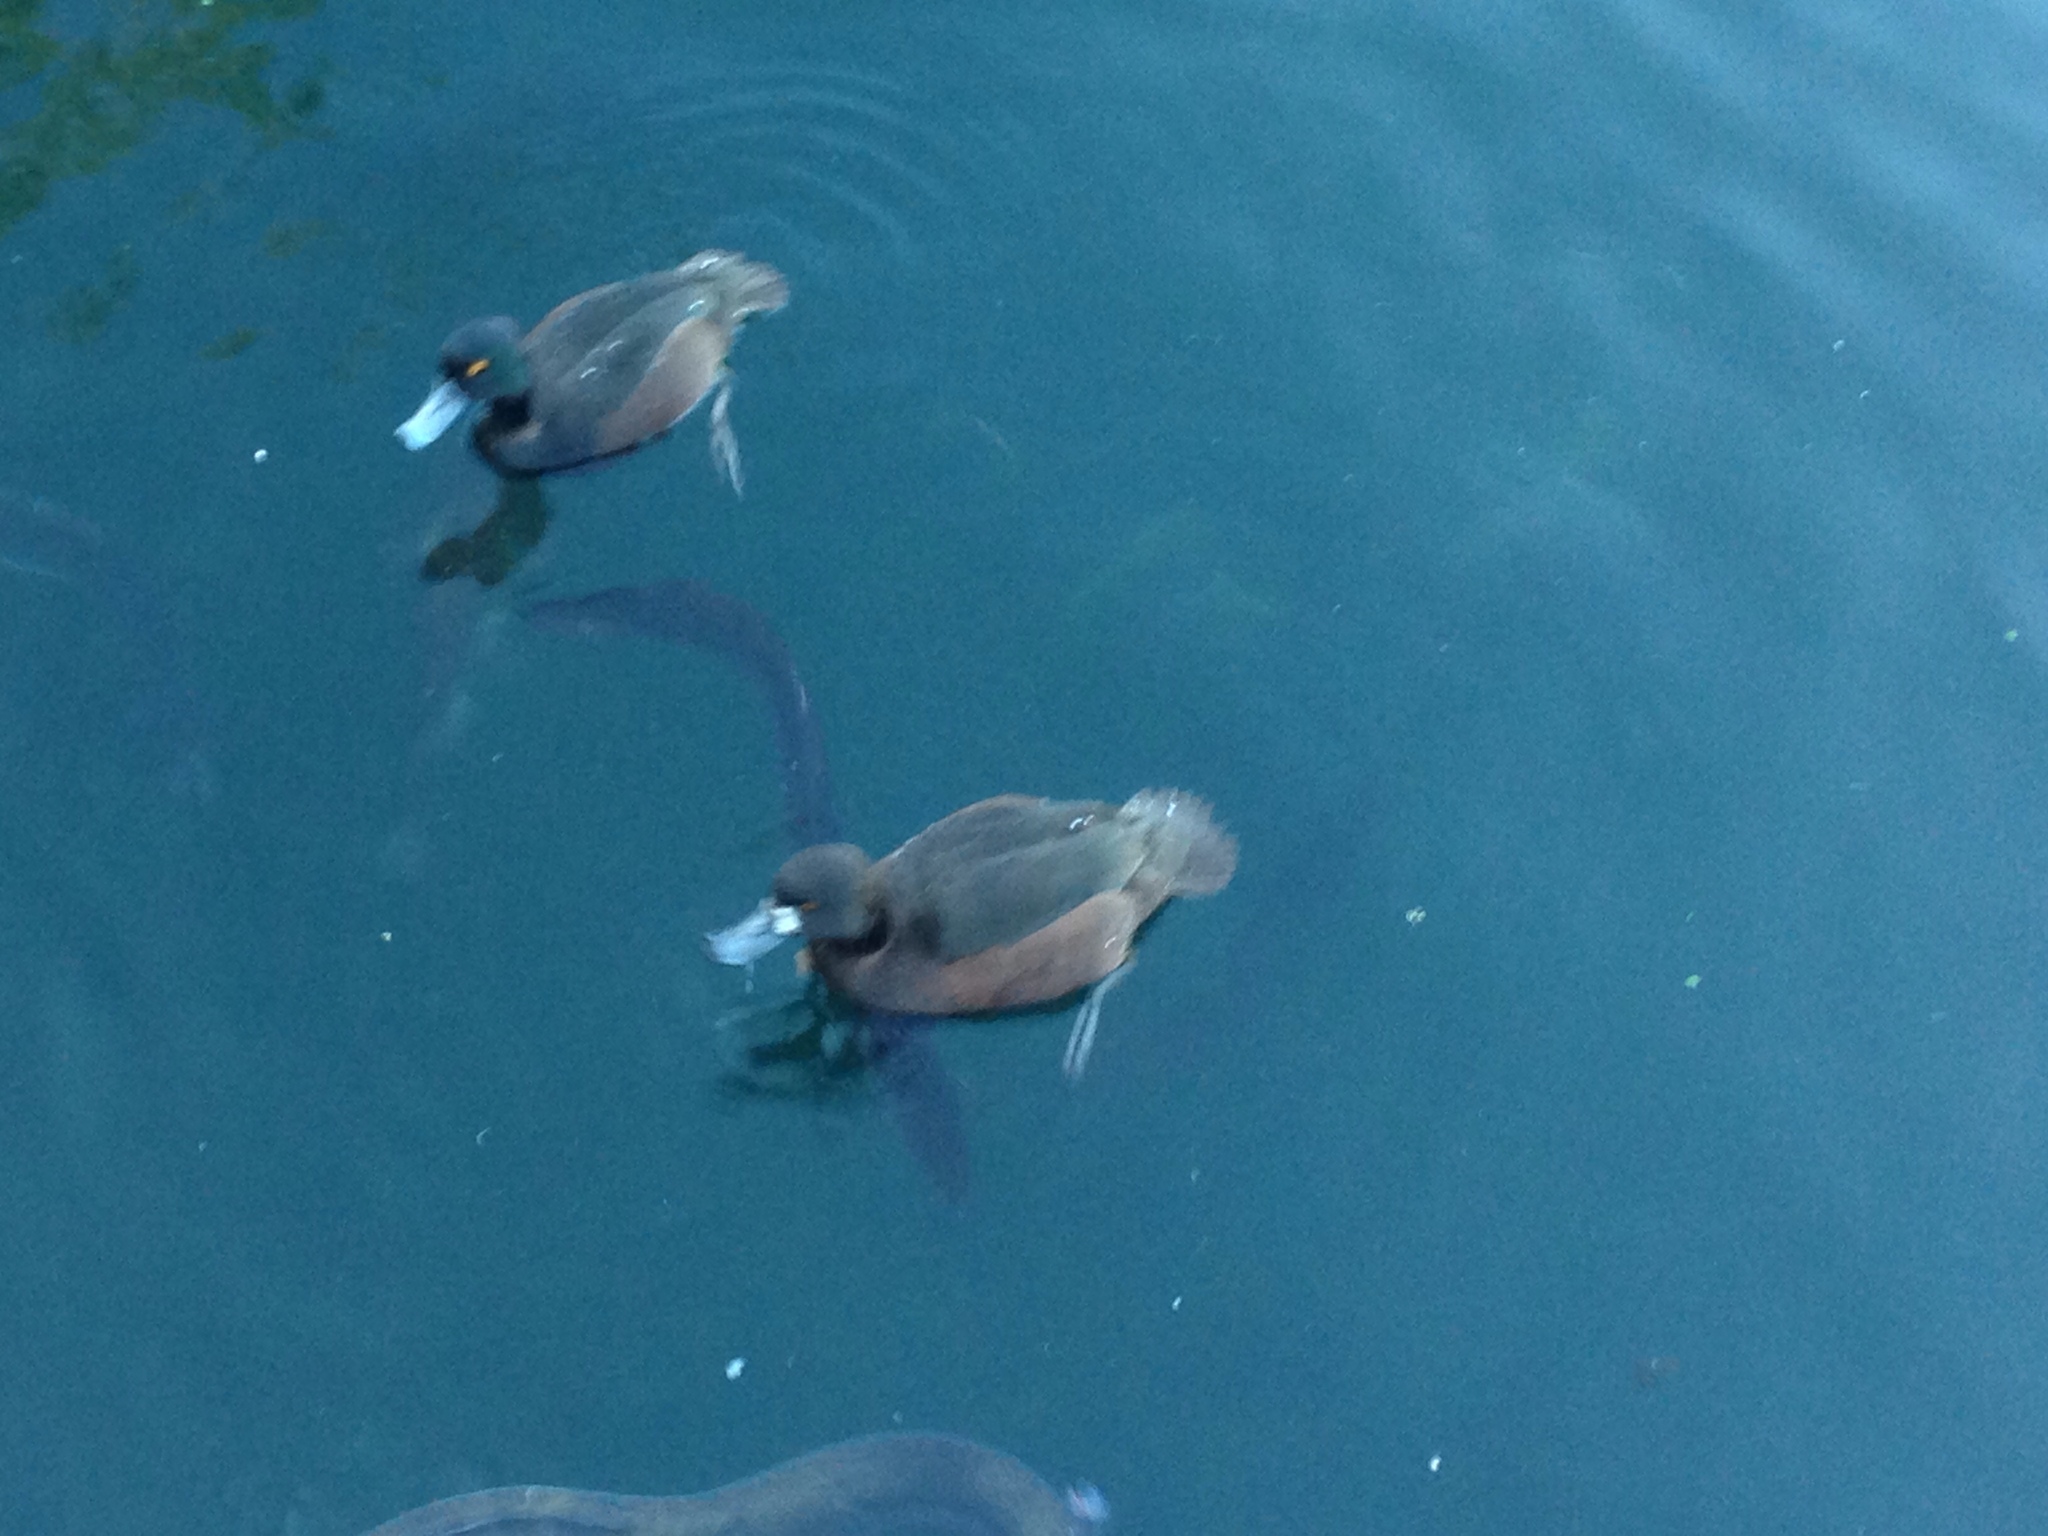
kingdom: Animalia
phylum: Chordata
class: Aves
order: Anseriformes
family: Anatidae
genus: Aythya
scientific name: Aythya novaeseelandiae
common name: New zealand scaup
